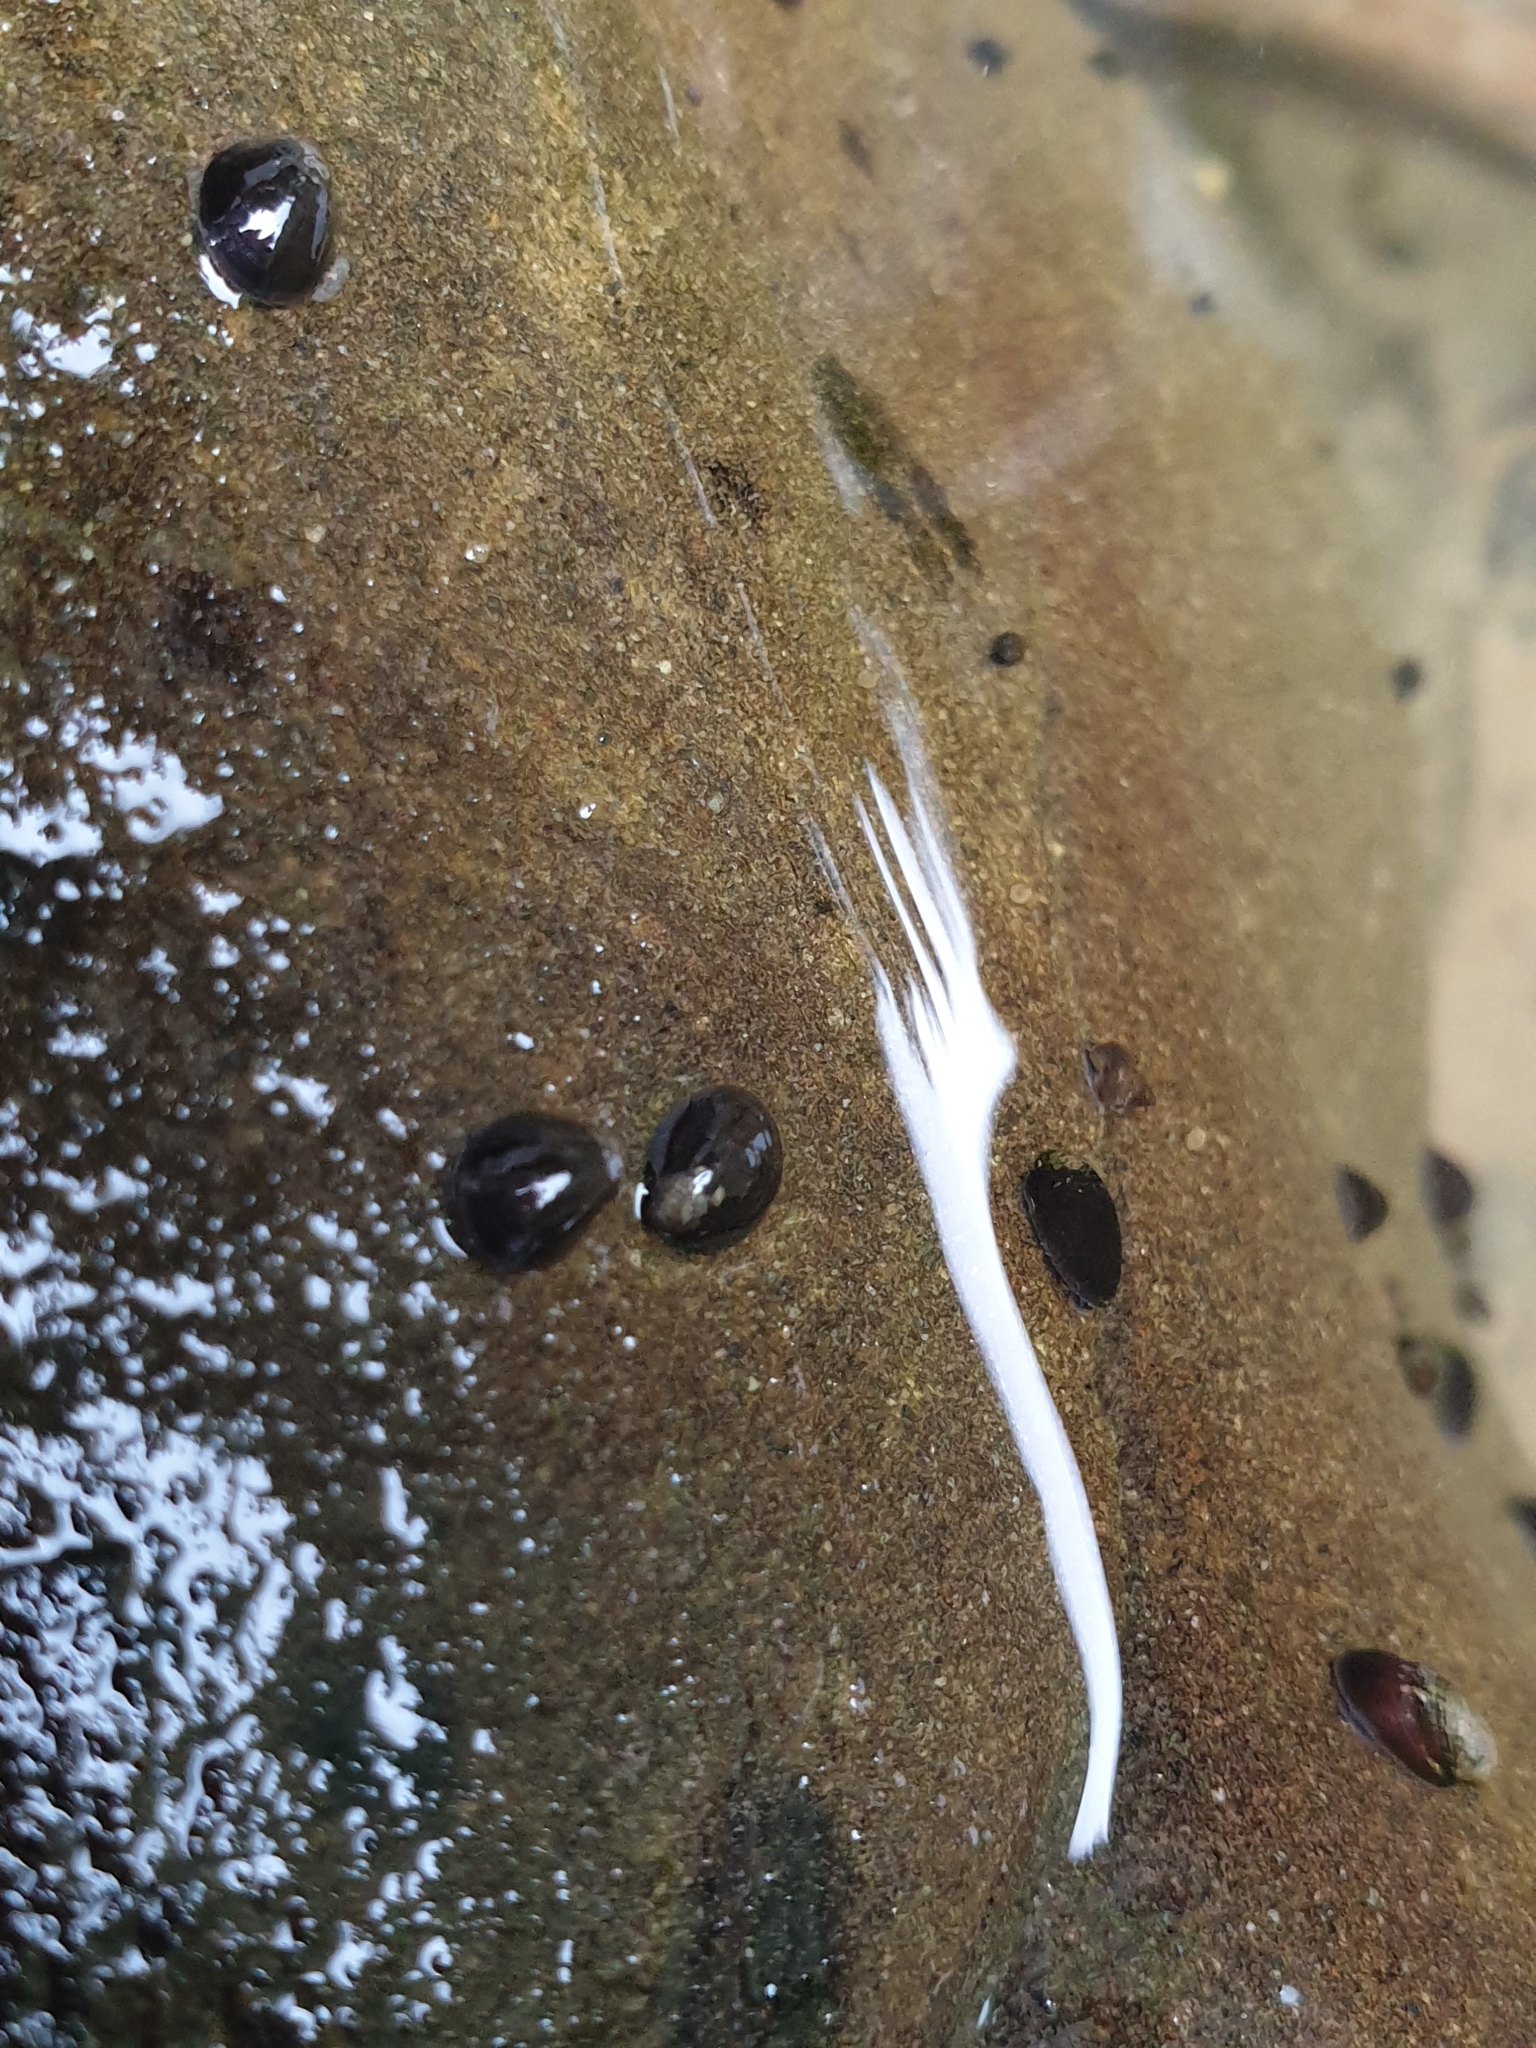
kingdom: Animalia
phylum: Mollusca
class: Gastropoda
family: Latiidae
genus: Latia
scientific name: Latia neritoides
